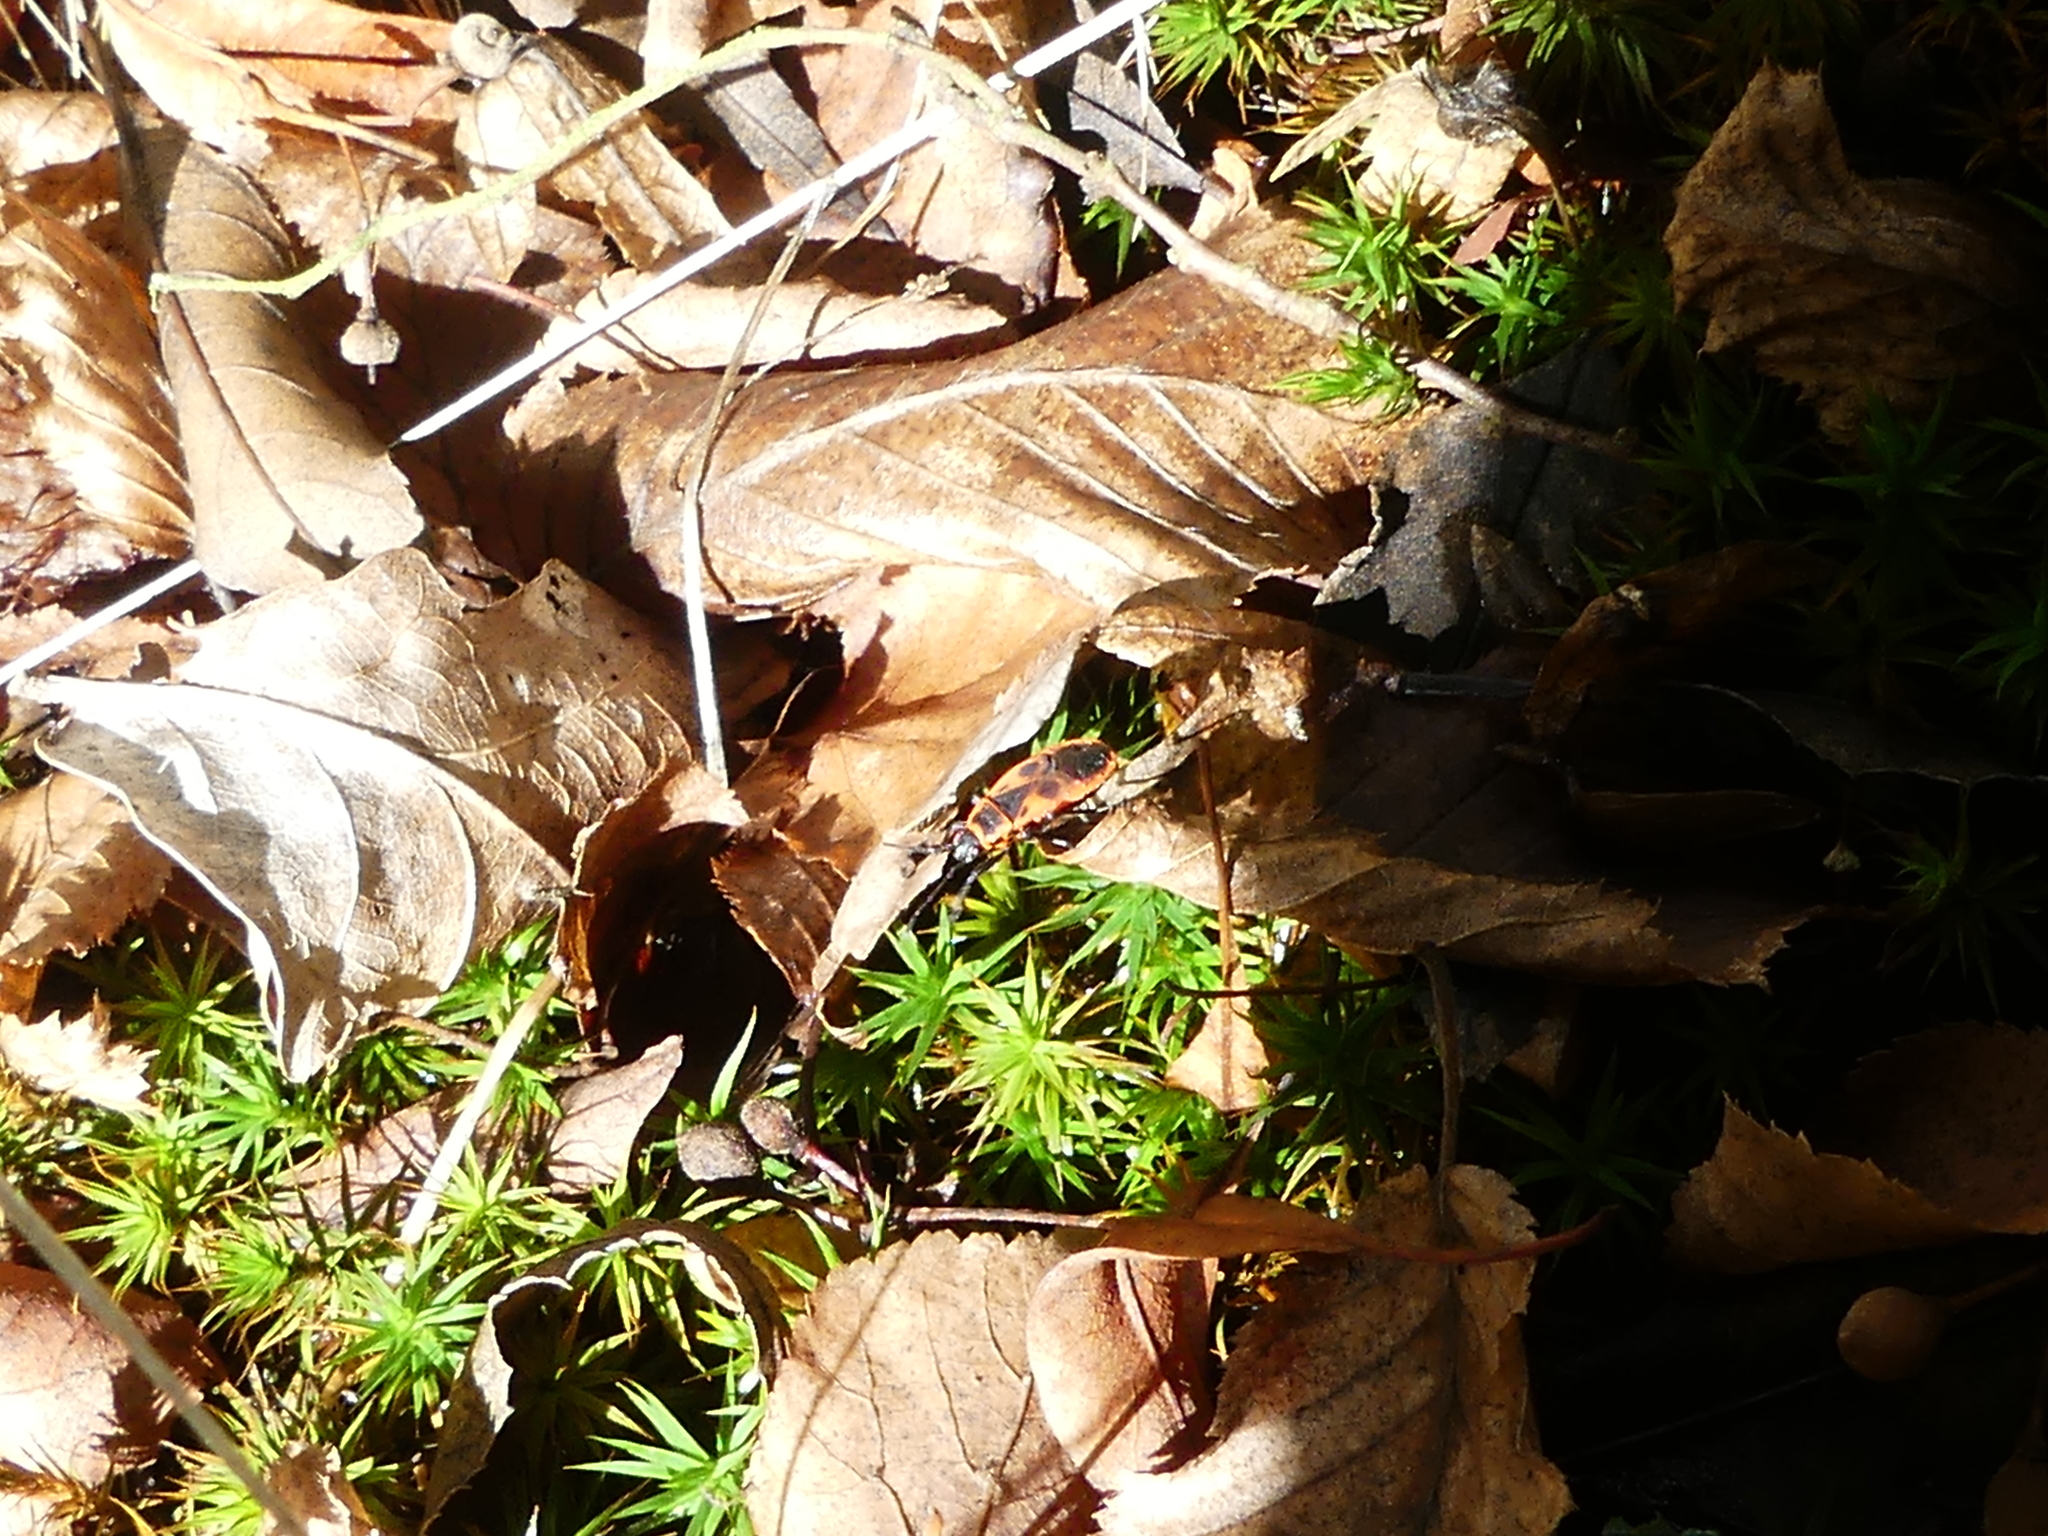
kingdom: Animalia
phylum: Arthropoda
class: Insecta
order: Hemiptera
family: Pyrrhocoridae
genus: Pyrrhocoris
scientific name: Pyrrhocoris apterus
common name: Firebug
